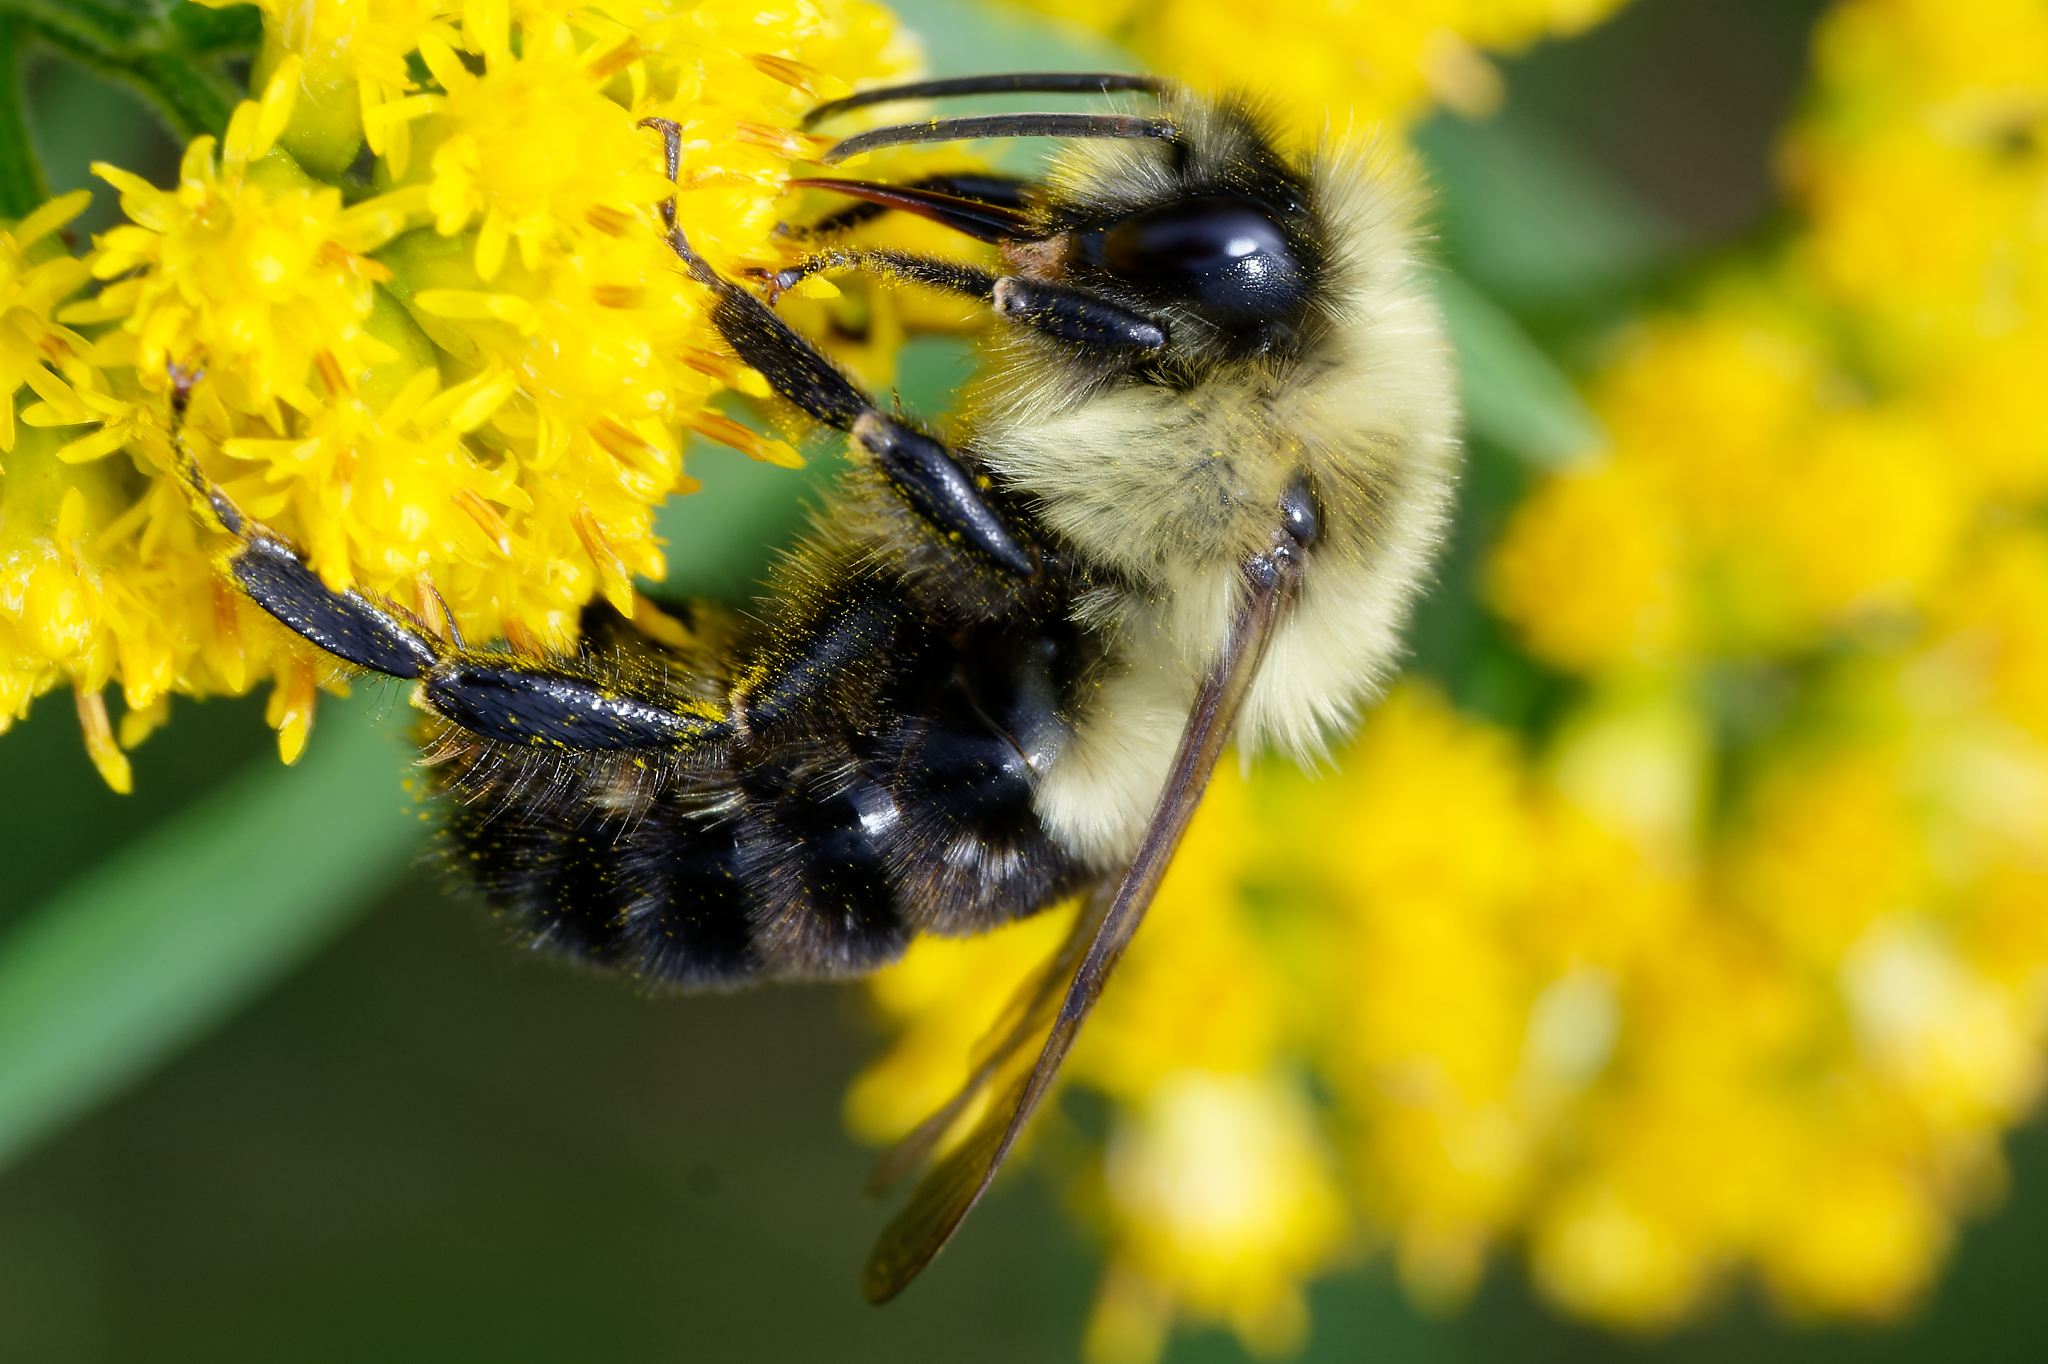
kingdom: Animalia
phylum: Arthropoda
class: Insecta
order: Hymenoptera
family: Apidae
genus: Bombus
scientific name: Bombus impatiens
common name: Common eastern bumble bee
